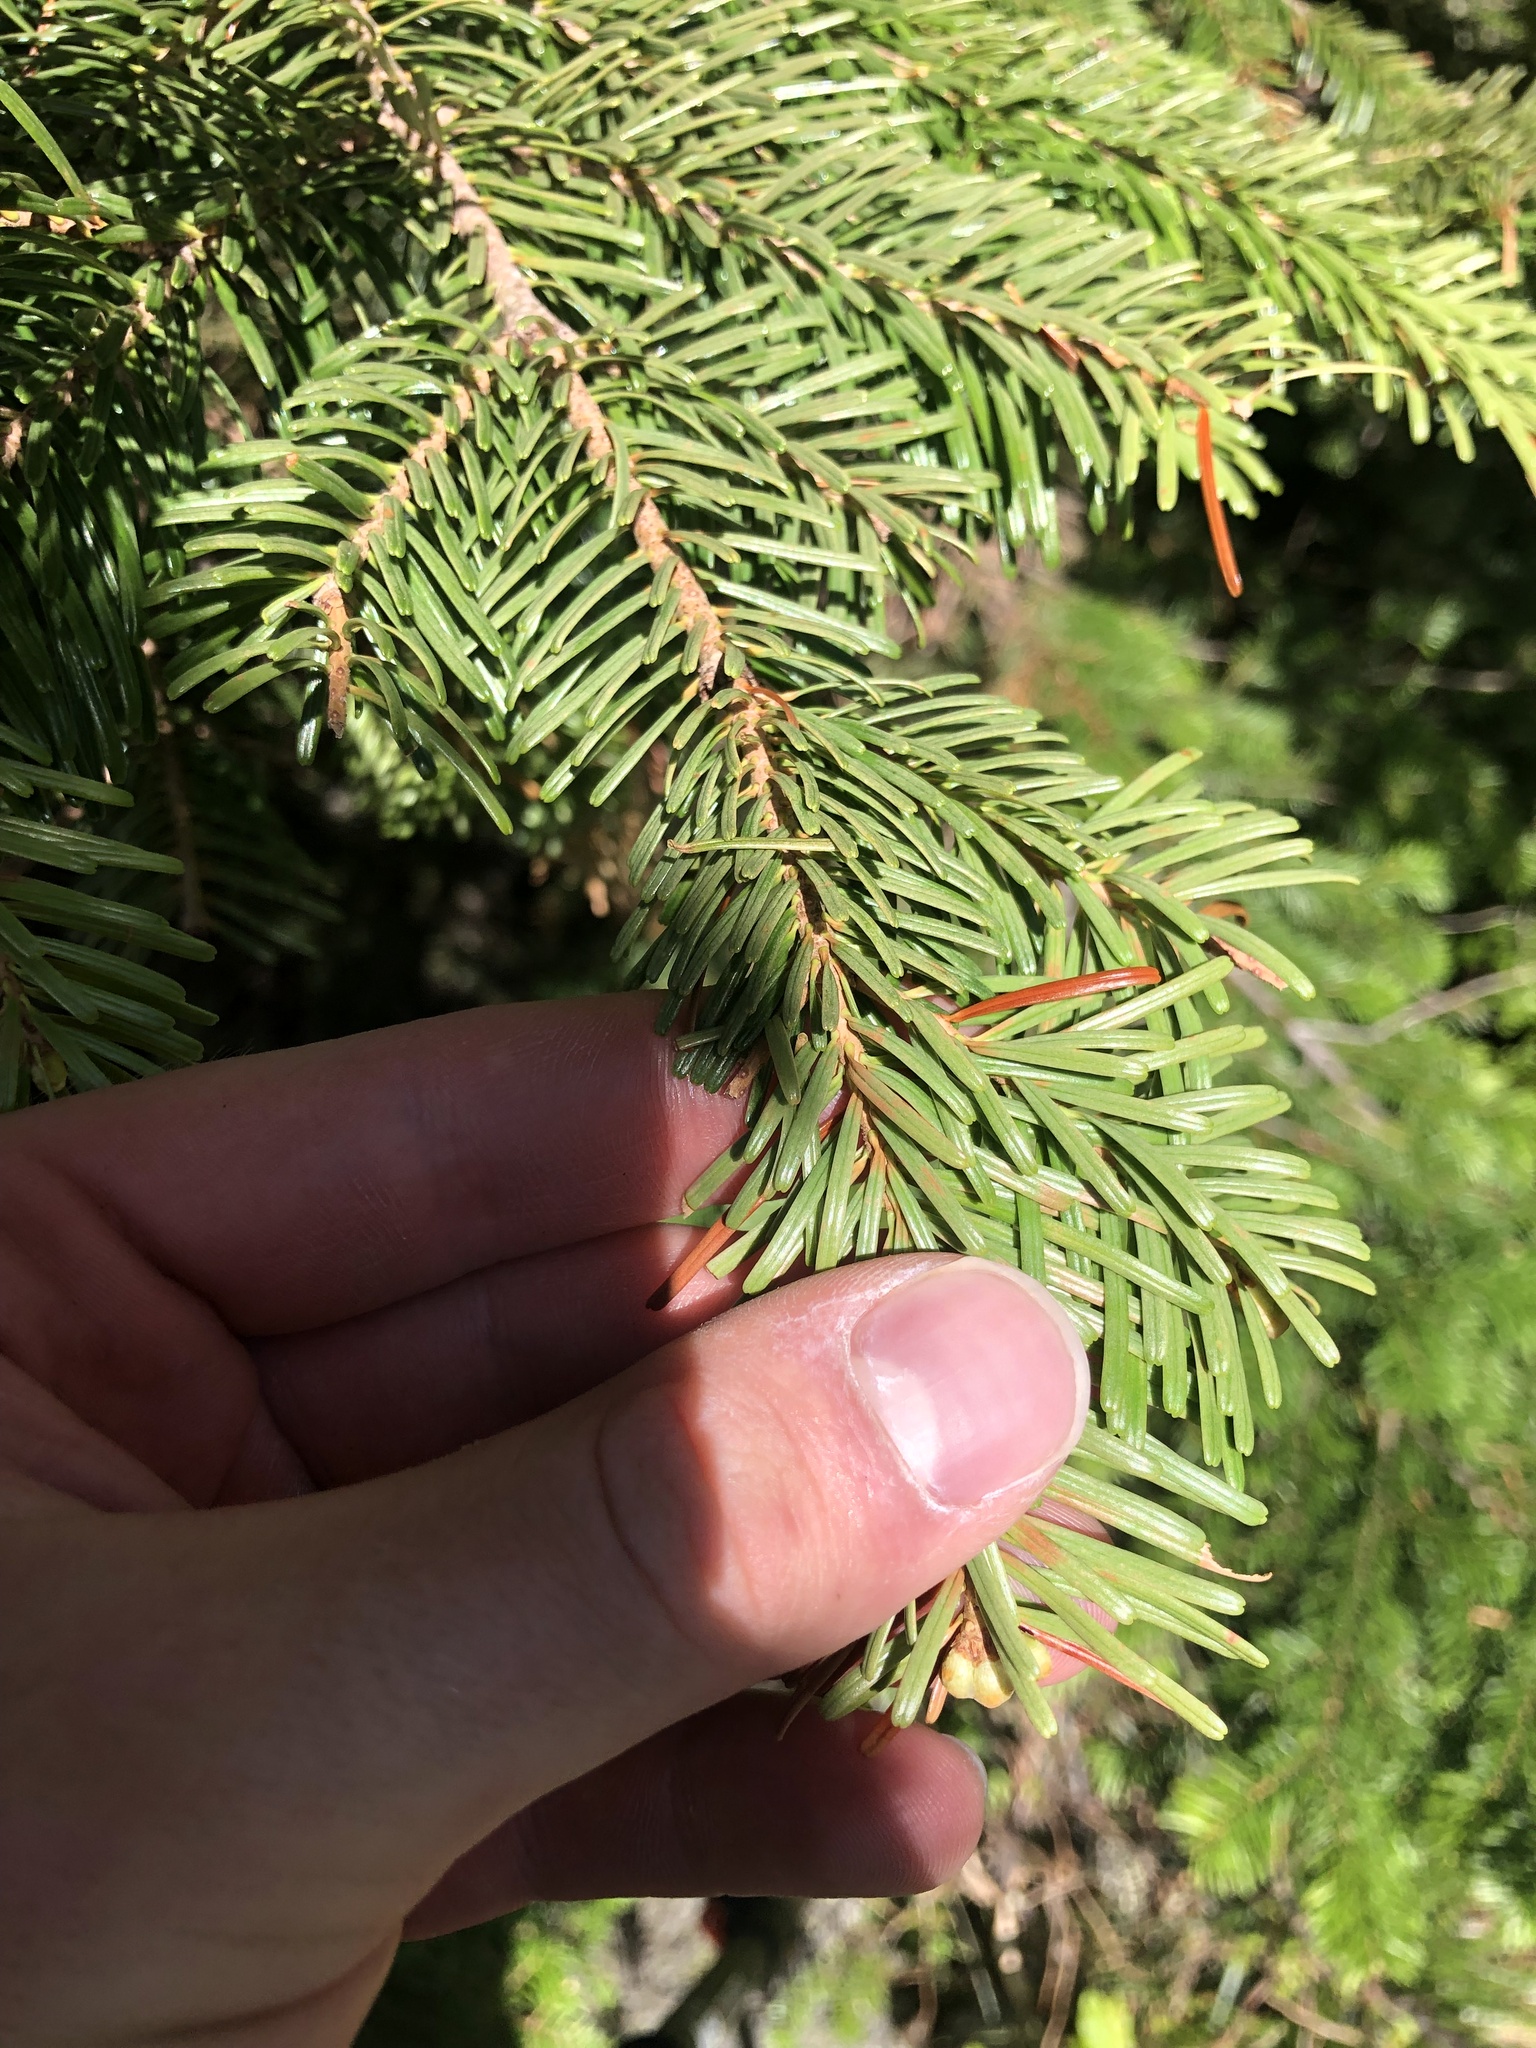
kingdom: Plantae
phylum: Tracheophyta
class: Pinopsida
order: Pinales
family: Pinaceae
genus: Abies
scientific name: Abies amabilis
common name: Pacific silver fir
